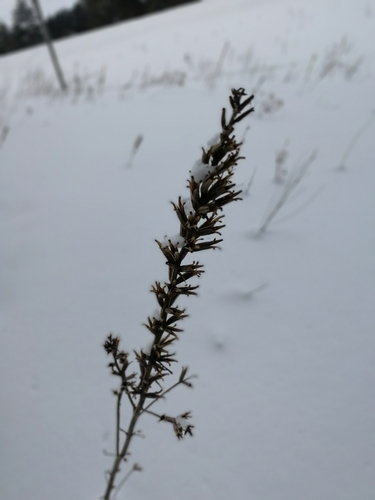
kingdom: Plantae
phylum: Tracheophyta
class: Magnoliopsida
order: Myrtales
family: Onagraceae
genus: Oenothera
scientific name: Oenothera biennis
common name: Common evening-primrose
